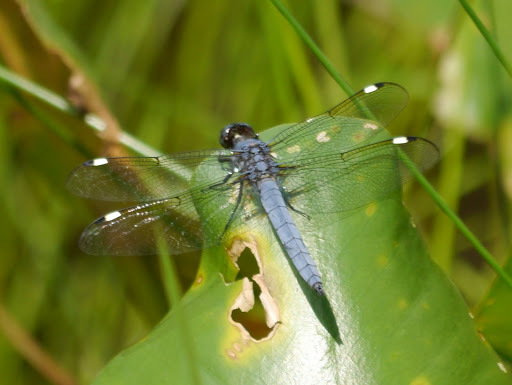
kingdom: Animalia
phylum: Arthropoda
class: Insecta
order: Odonata
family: Libellulidae
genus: Libellula
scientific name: Libellula cyanea
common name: Spangled skimmer
